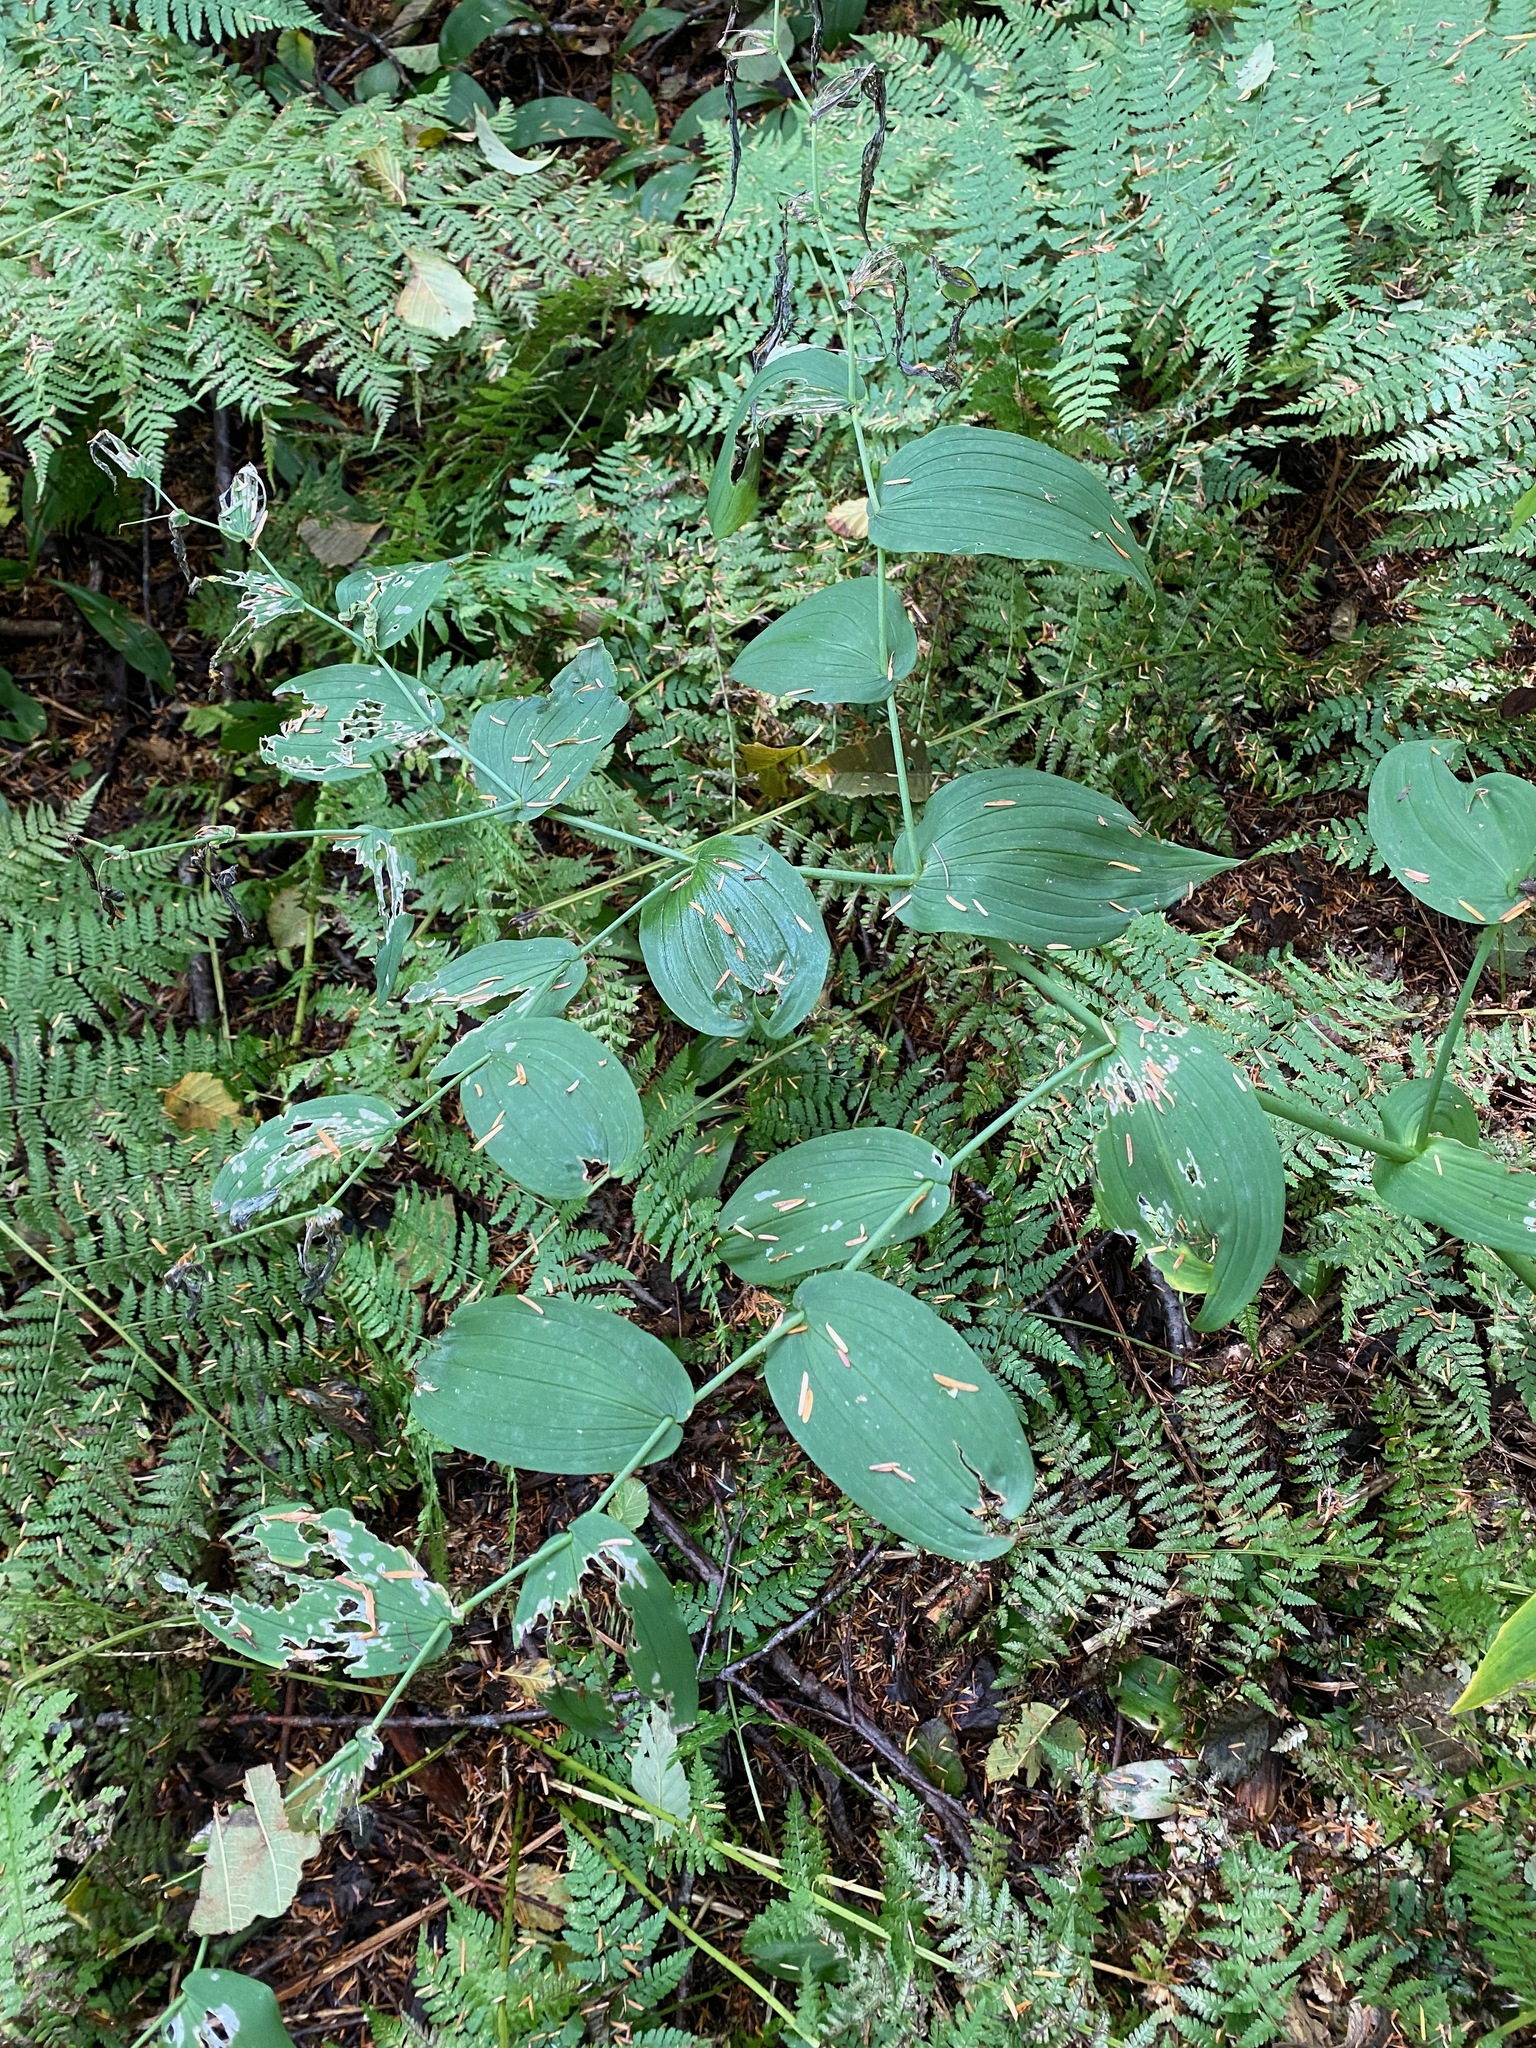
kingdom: Plantae
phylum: Tracheophyta
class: Liliopsida
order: Liliales
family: Liliaceae
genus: Streptopus
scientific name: Streptopus amplexifolius
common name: Clasp twisted stalk
